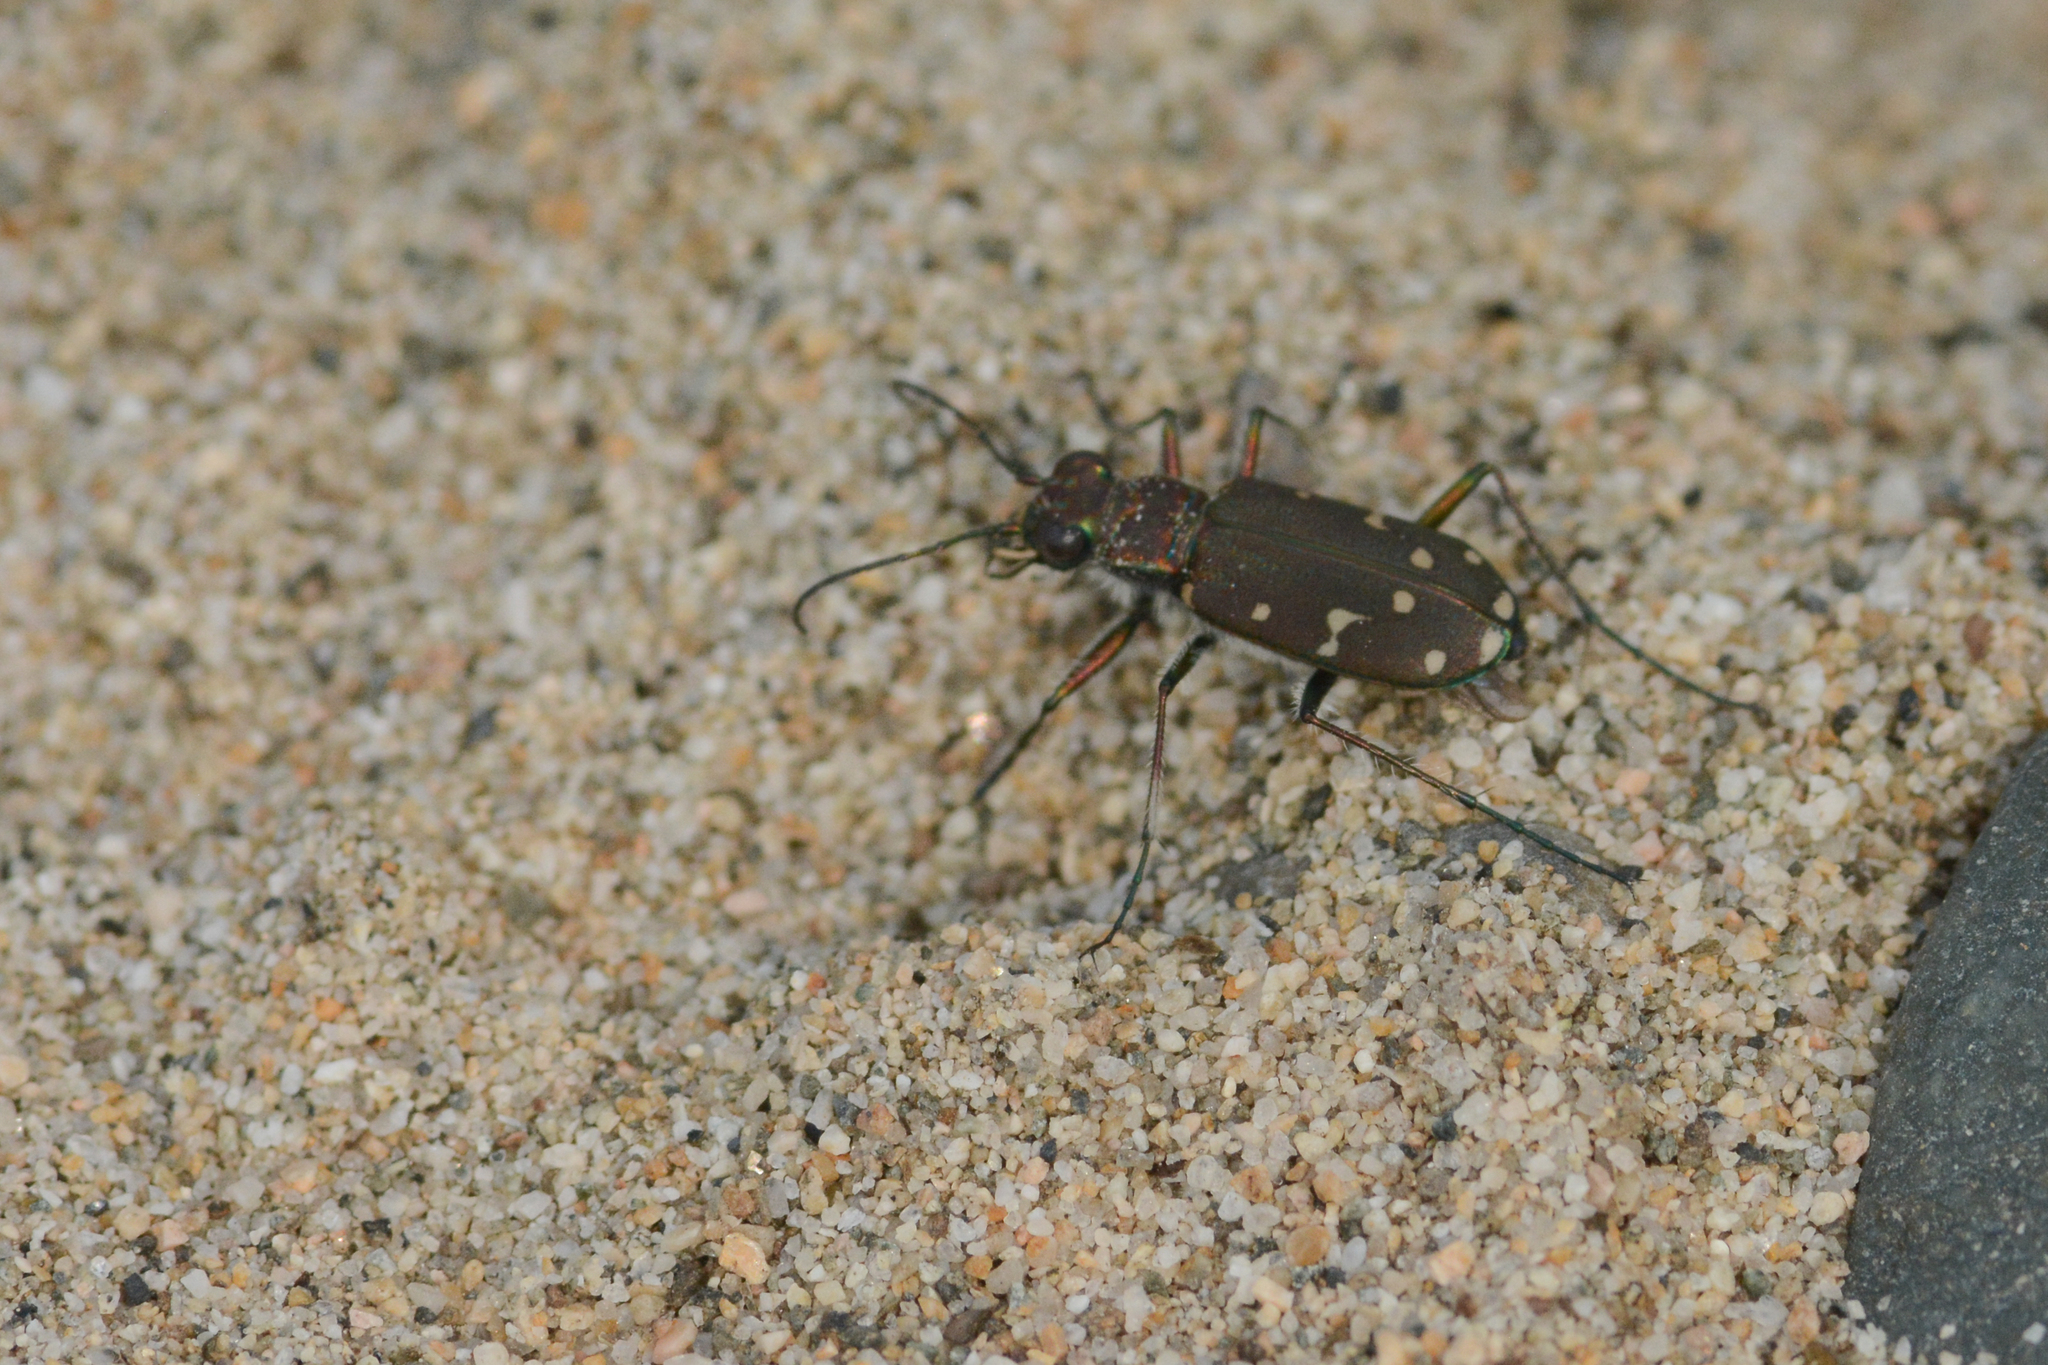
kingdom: Animalia
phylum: Arthropoda
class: Insecta
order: Coleoptera
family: Carabidae
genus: Cicindela
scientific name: Cicindela oregona
